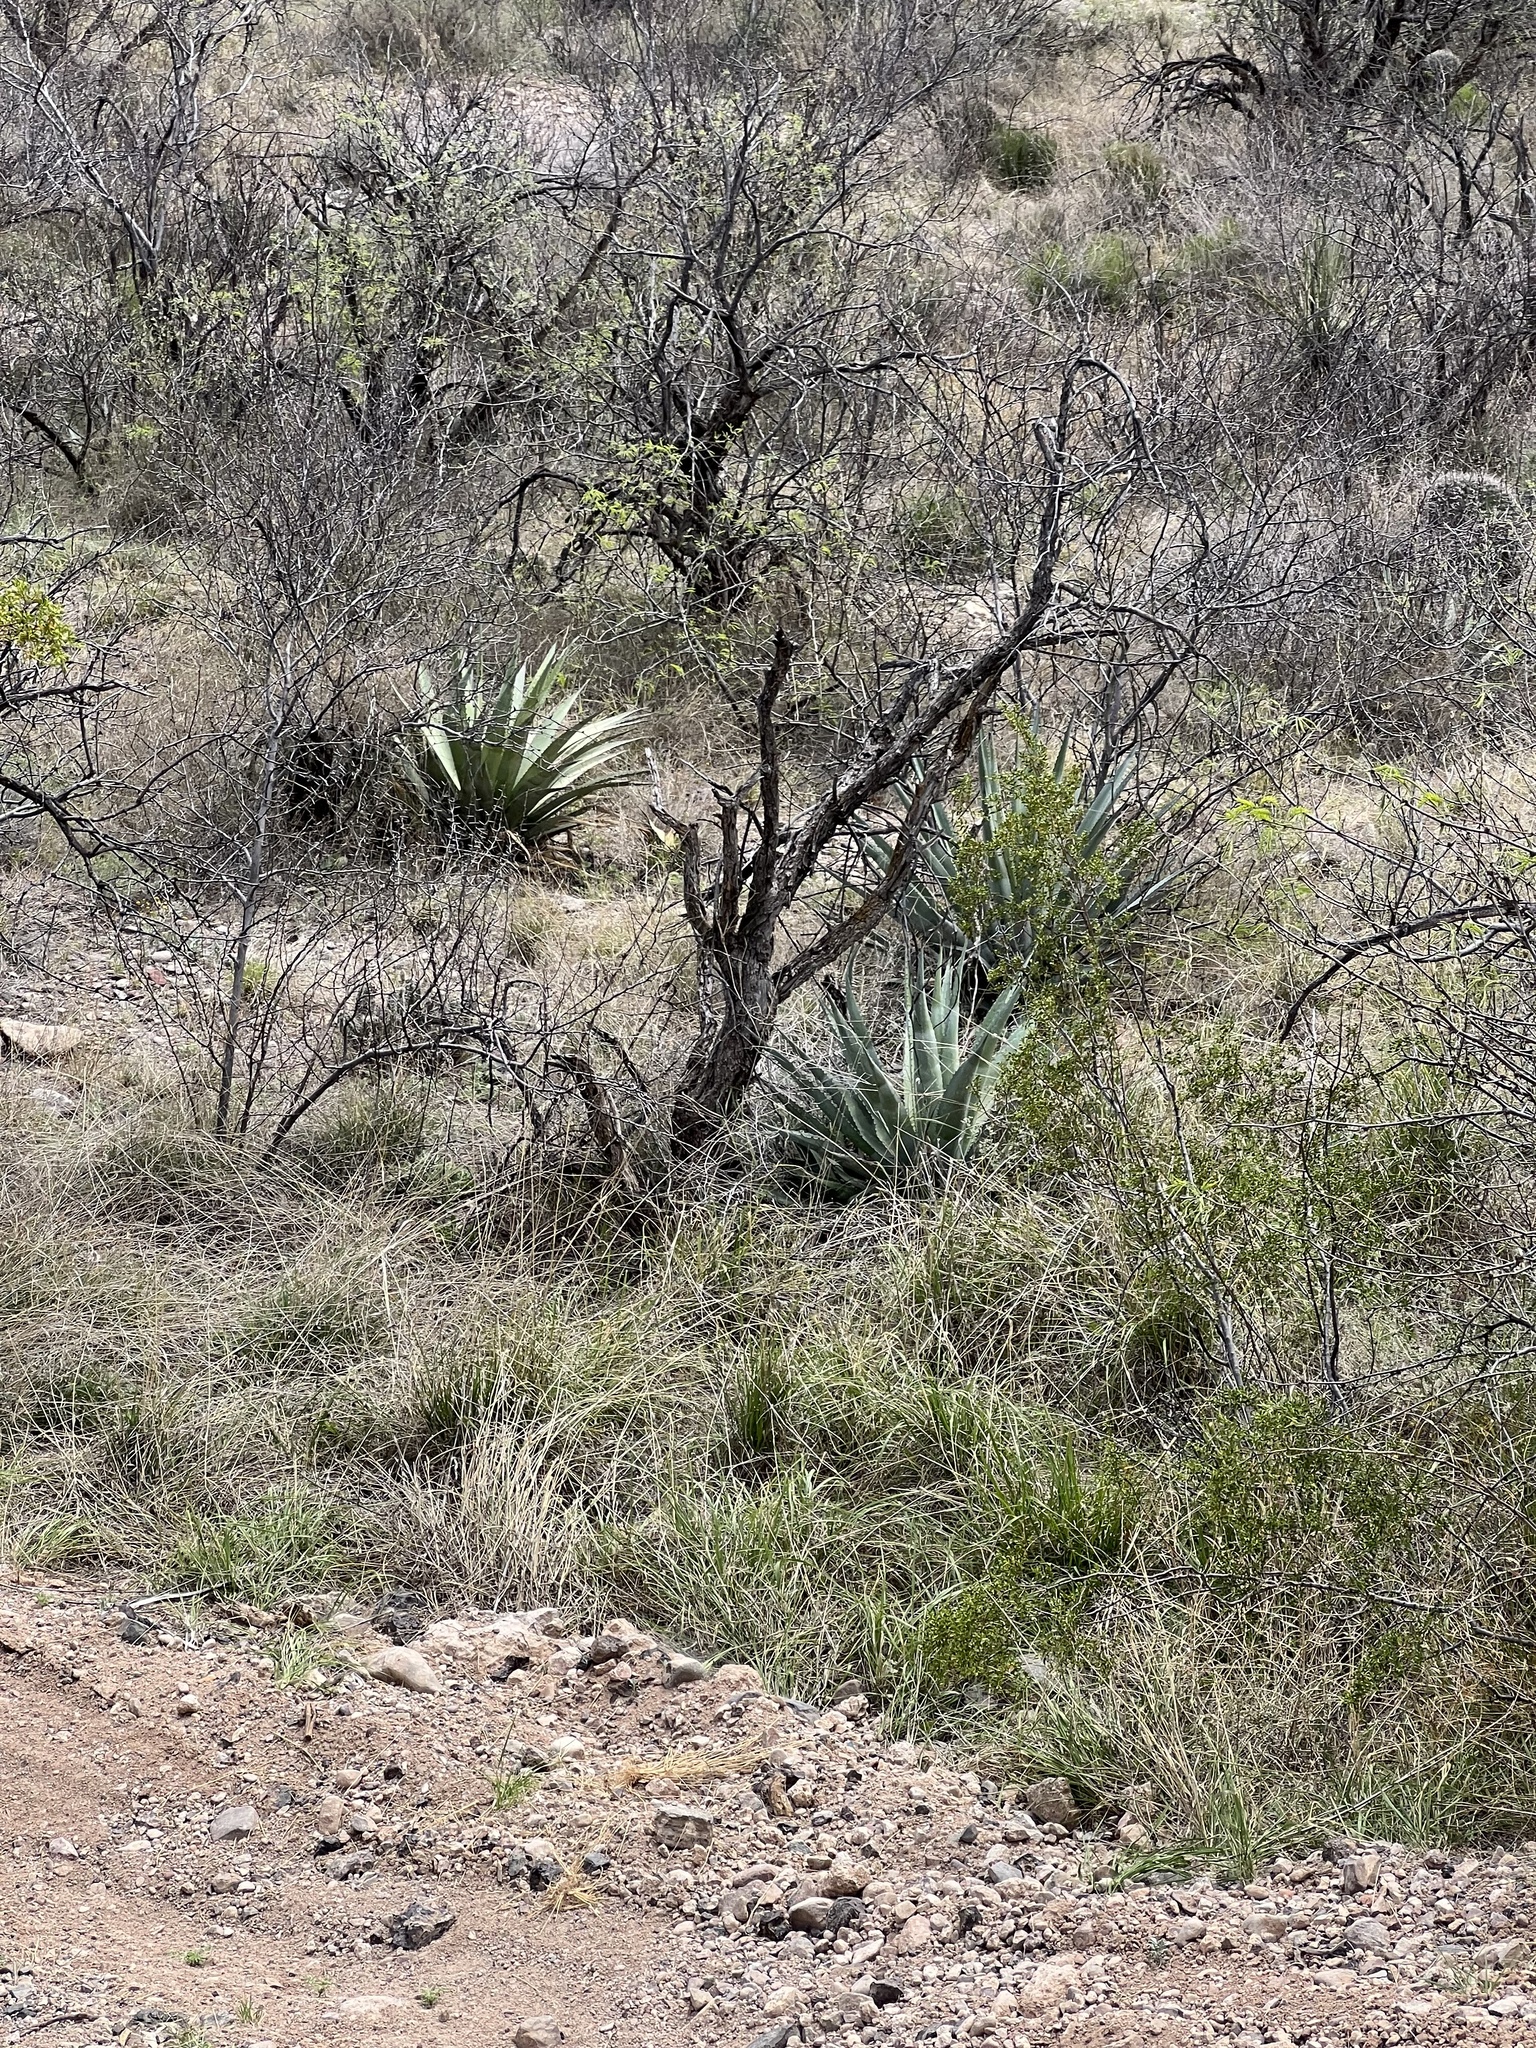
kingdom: Plantae
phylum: Tracheophyta
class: Liliopsida
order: Asparagales
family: Asparagaceae
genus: Agave
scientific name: Agave palmeri
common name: Palmer agave
